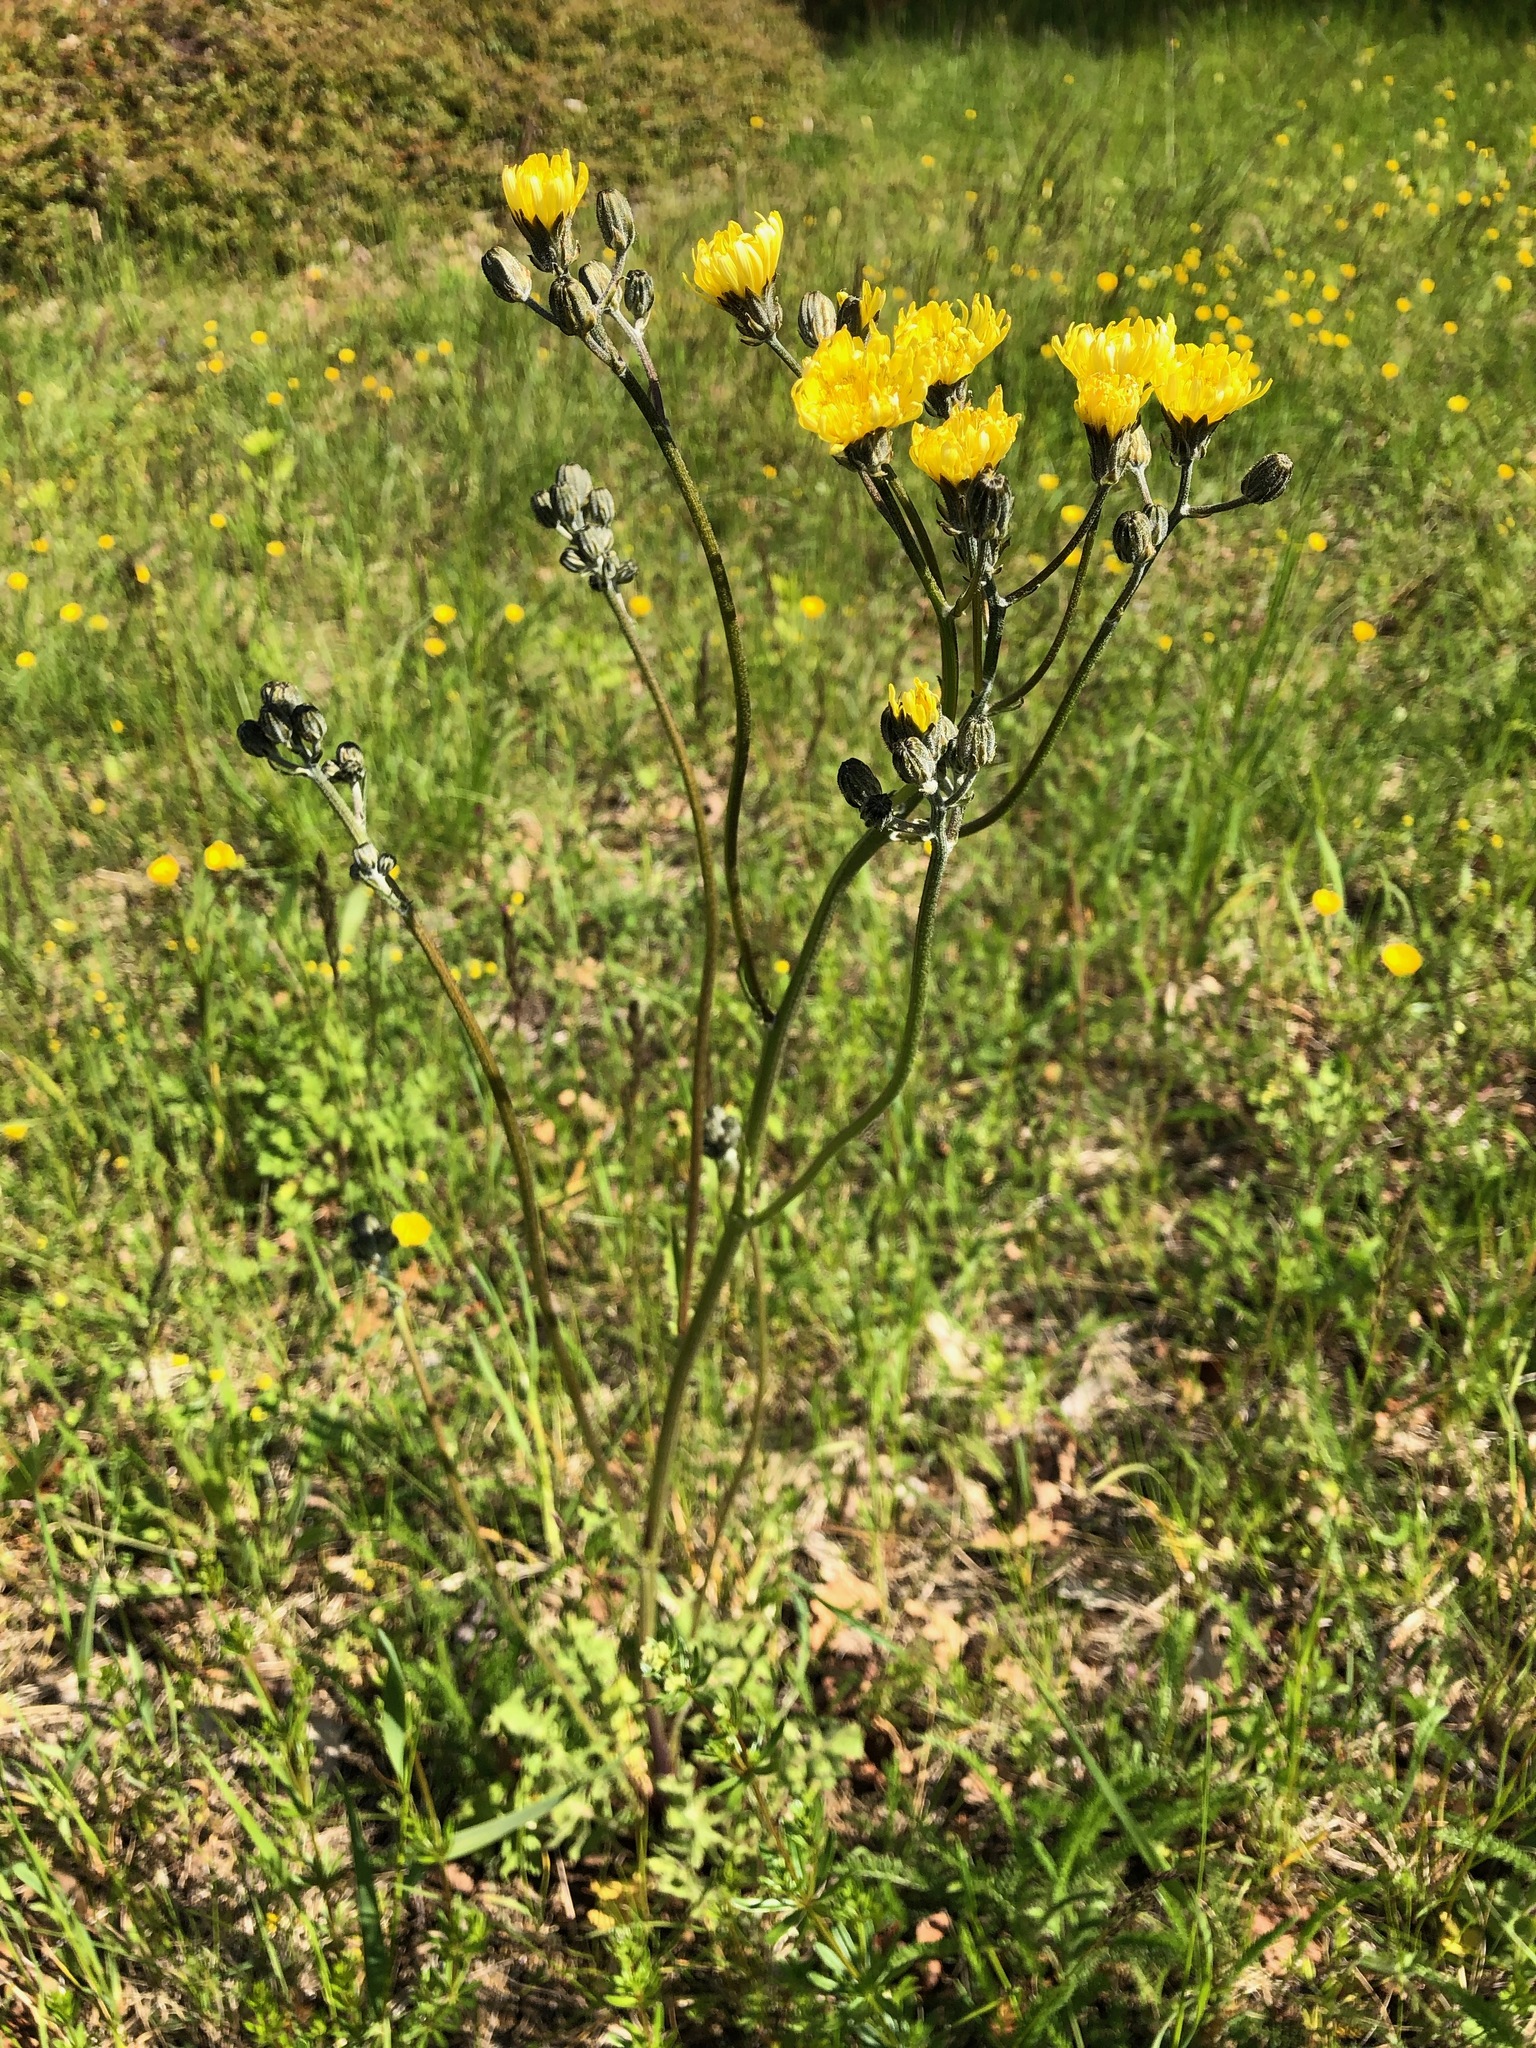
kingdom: Plantae
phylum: Tracheophyta
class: Magnoliopsida
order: Asterales
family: Asteraceae
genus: Crepis
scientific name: Crepis biennis
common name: Rough hawk's-beard
